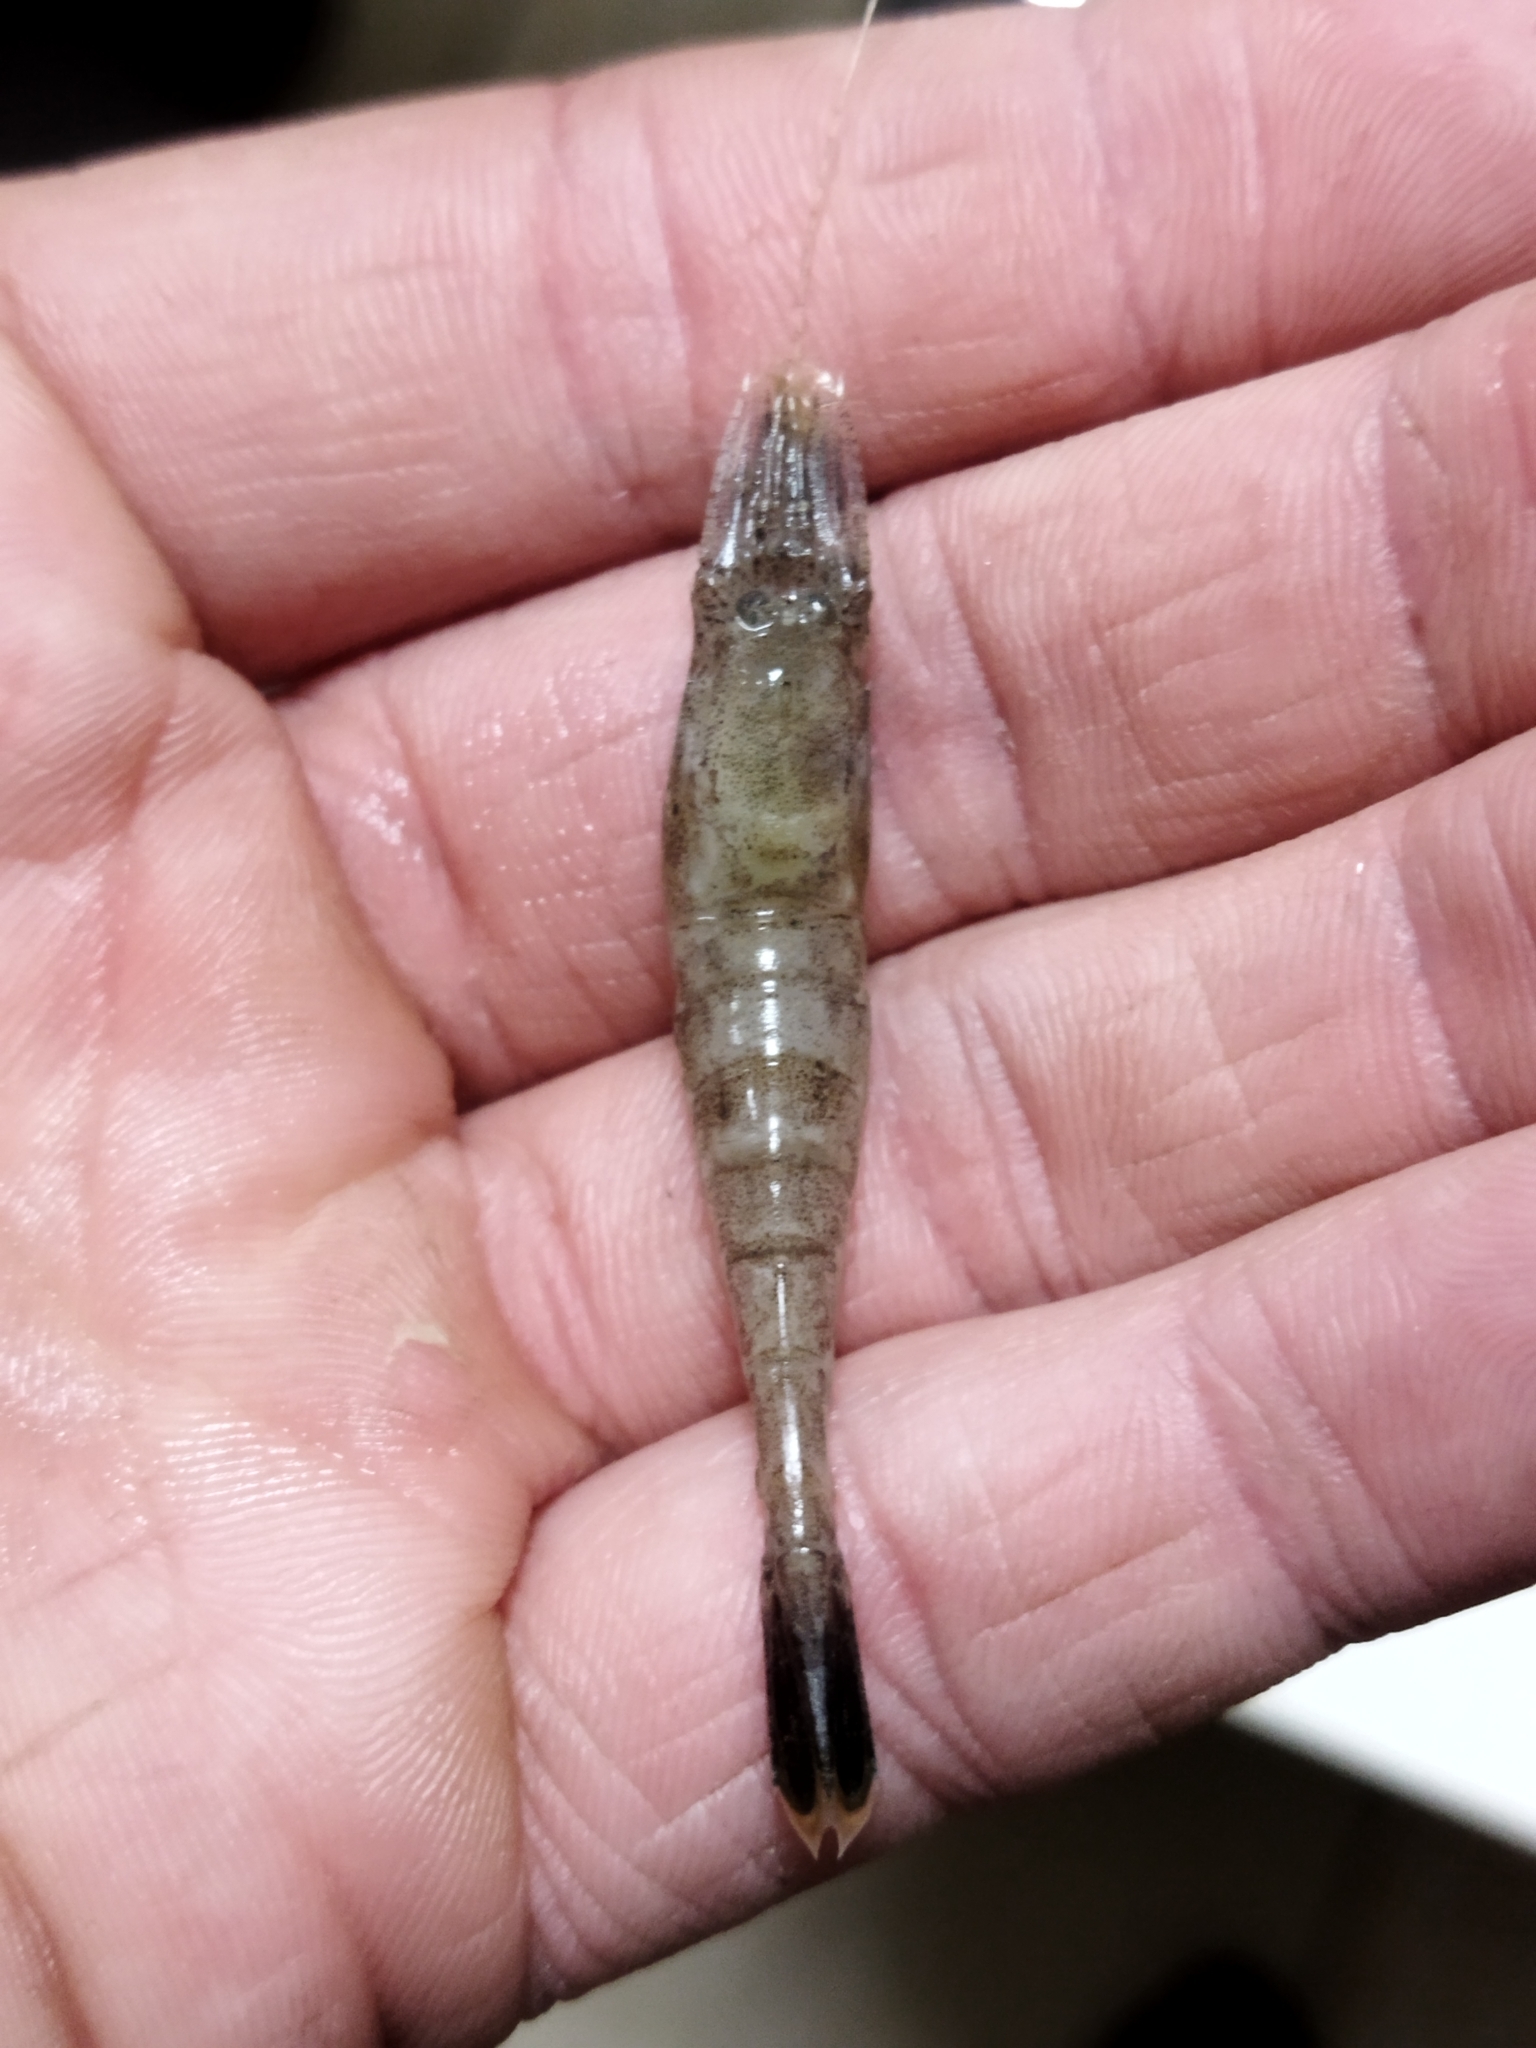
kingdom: Animalia
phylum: Arthropoda
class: Malacostraca
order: Decapoda
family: Crangonidae
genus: Crangon
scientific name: Crangon crangon
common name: Brown shrimp
